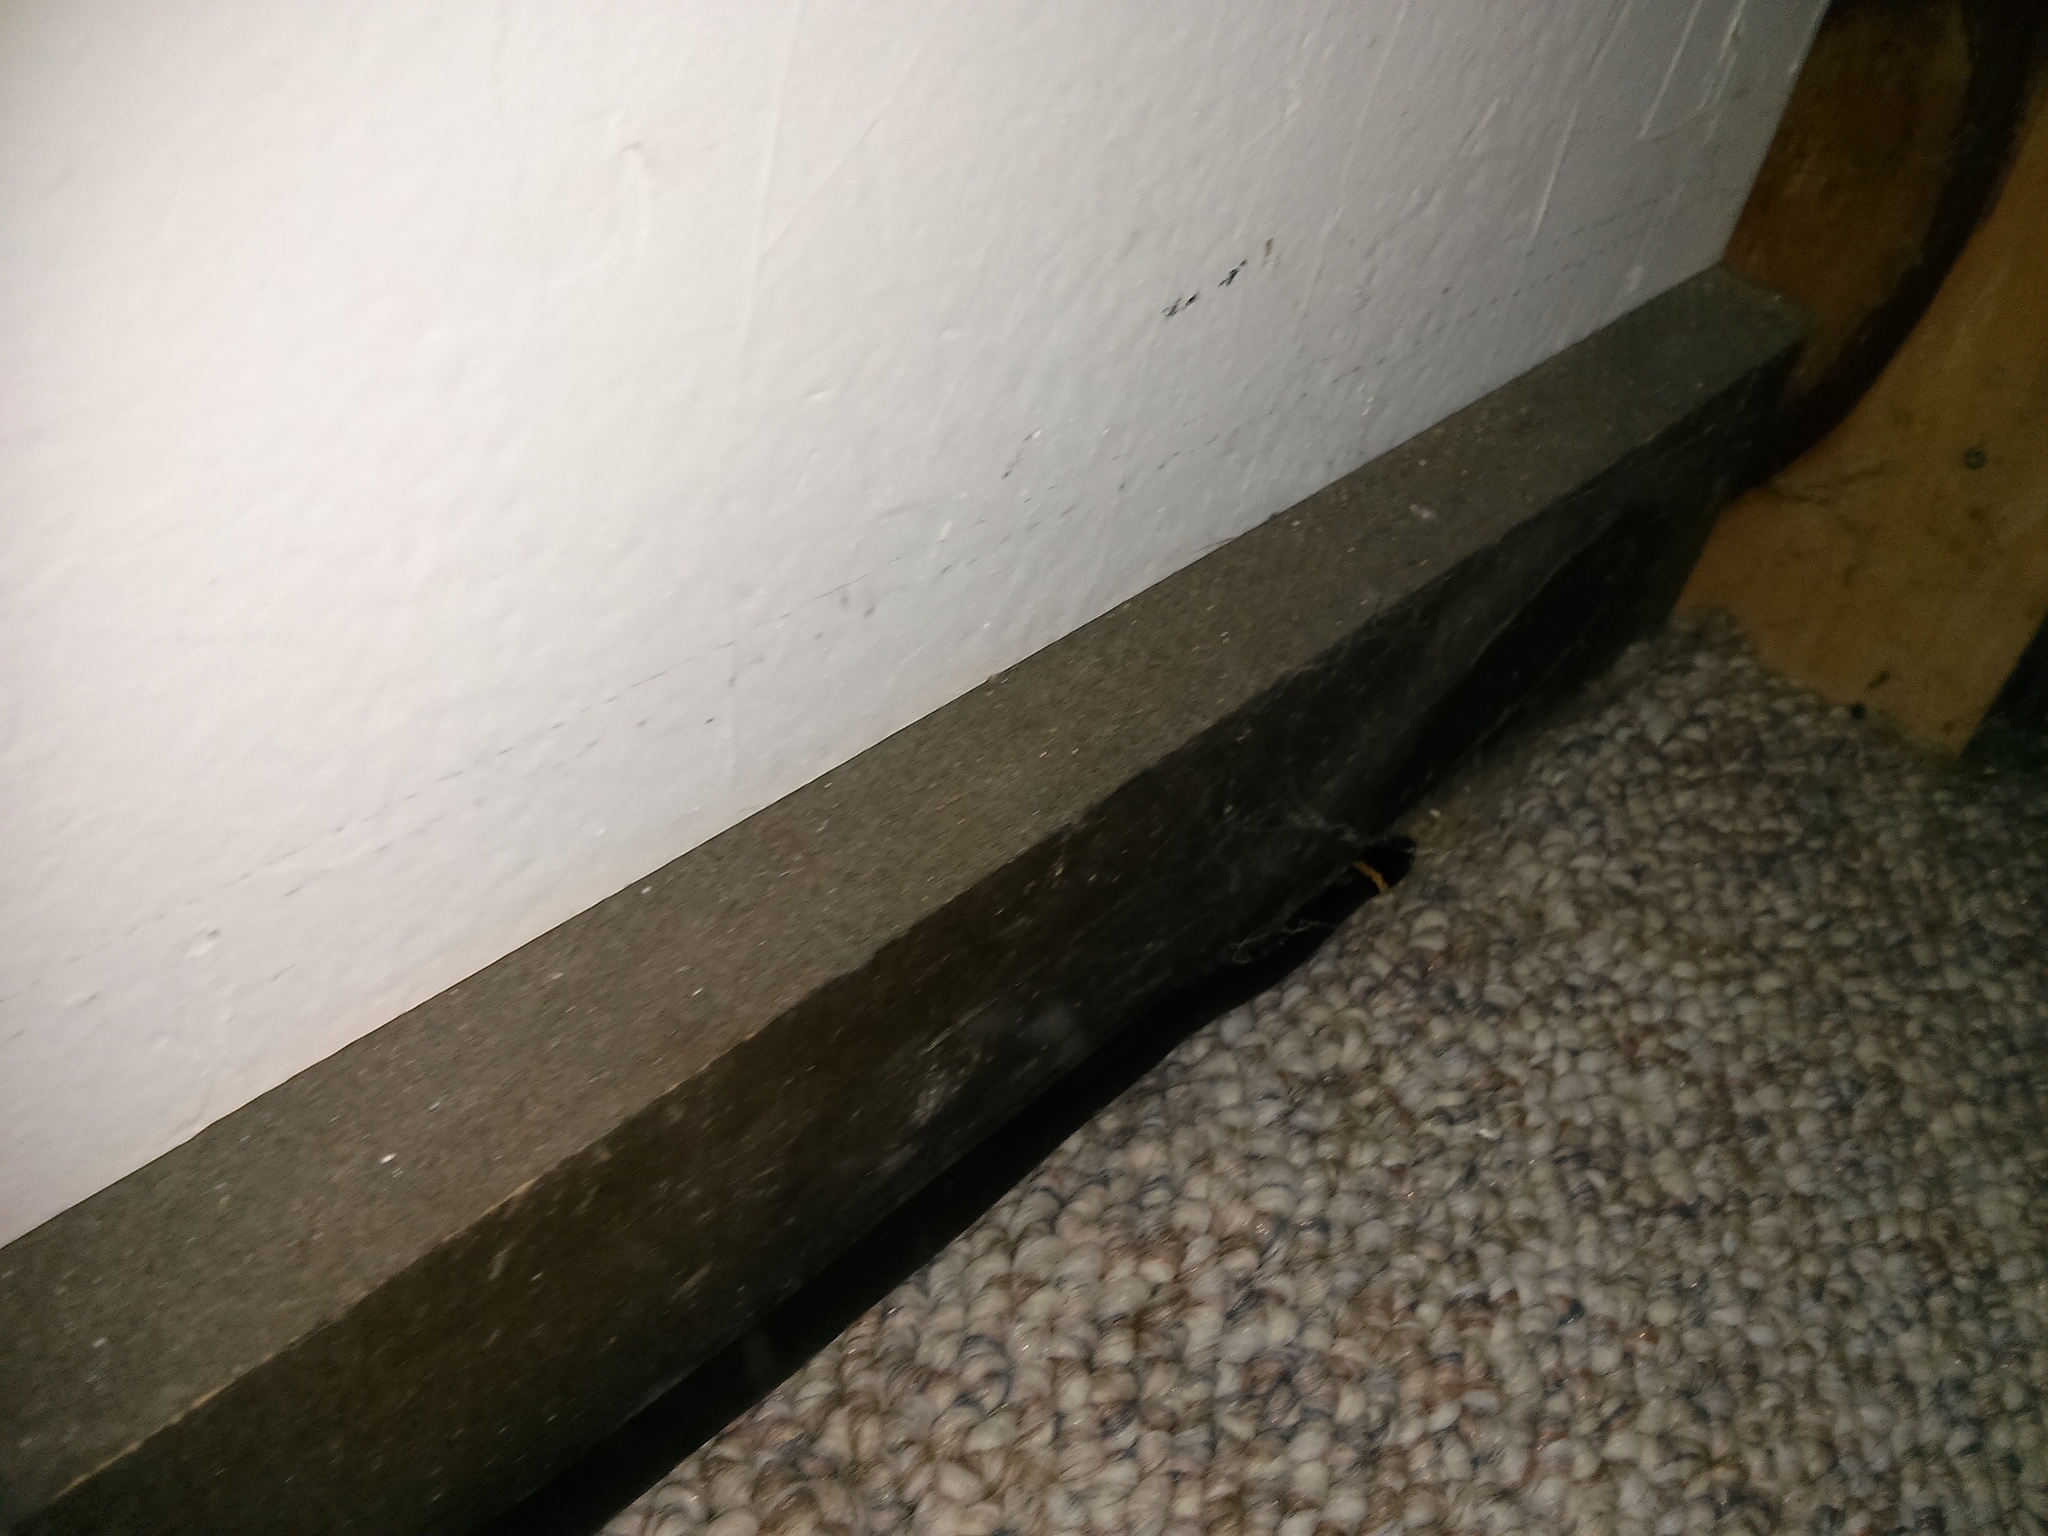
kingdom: Animalia
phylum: Chordata
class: Squamata
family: Colubridae
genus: Diadophis
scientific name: Diadophis punctatus
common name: Ringneck snake
